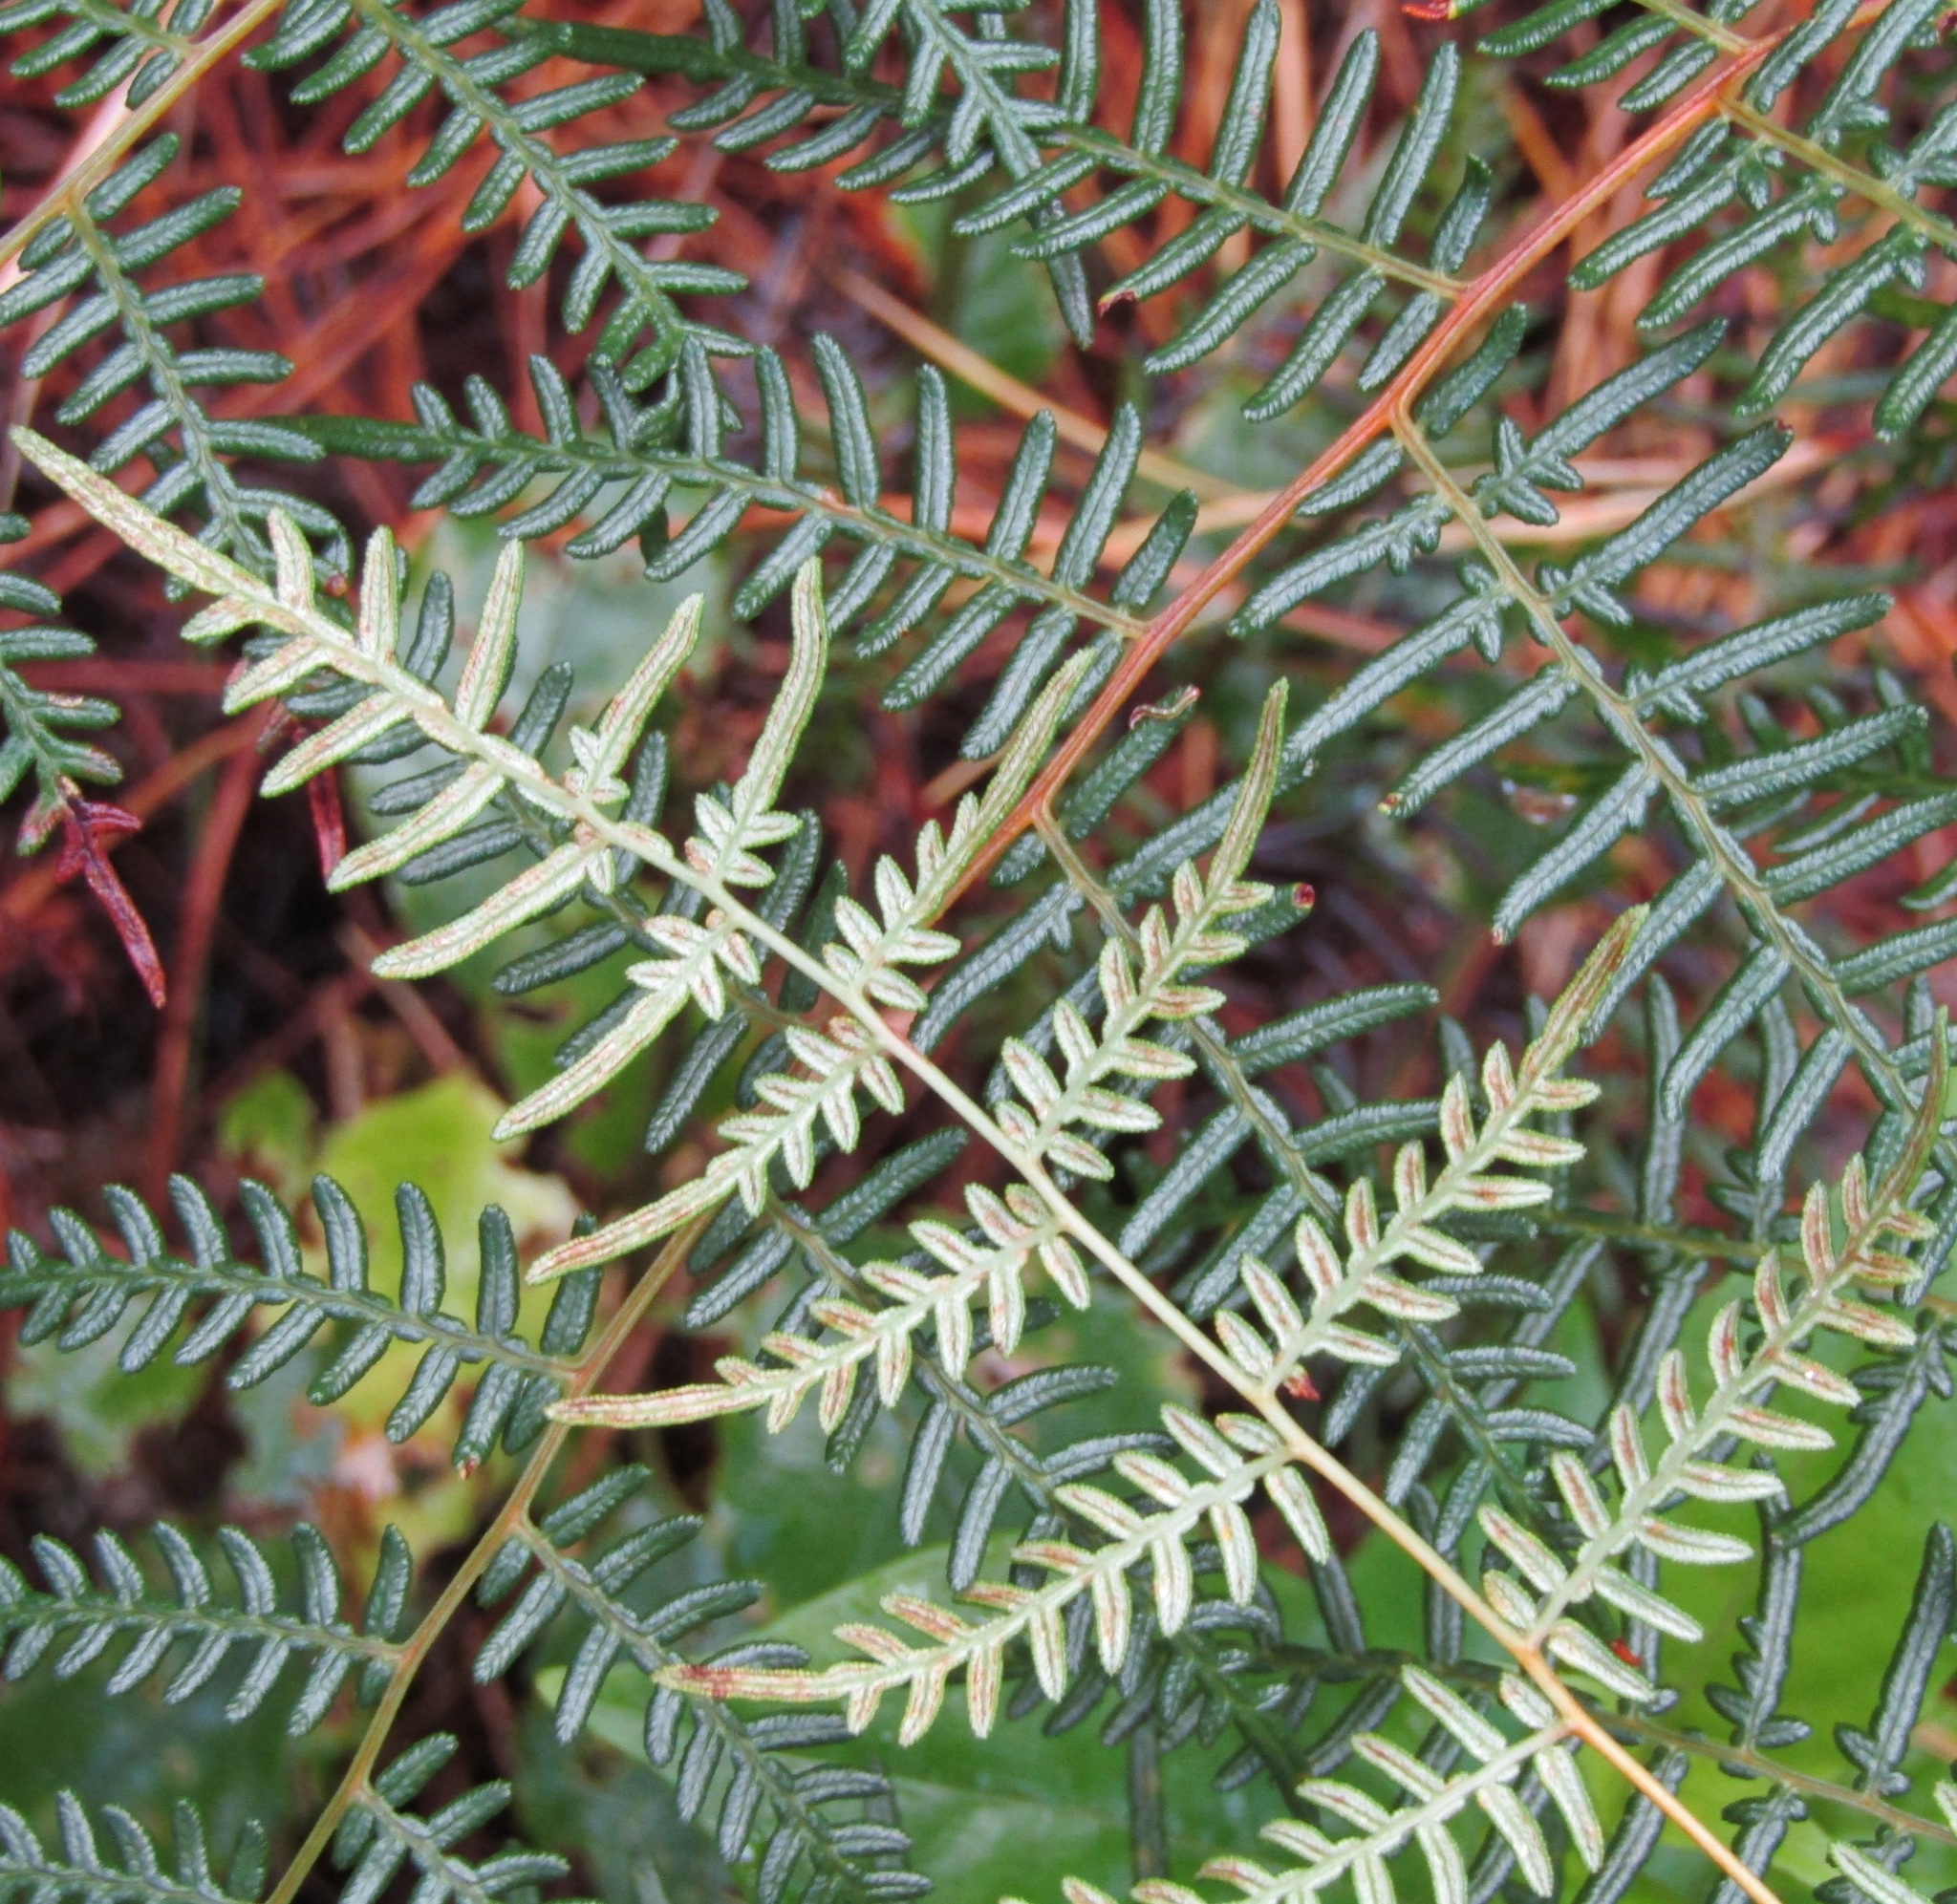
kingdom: Plantae
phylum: Tracheophyta
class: Polypodiopsida
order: Polypodiales
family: Dennstaedtiaceae
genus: Pteridium
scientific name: Pteridium esculentum
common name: Bracken fern
